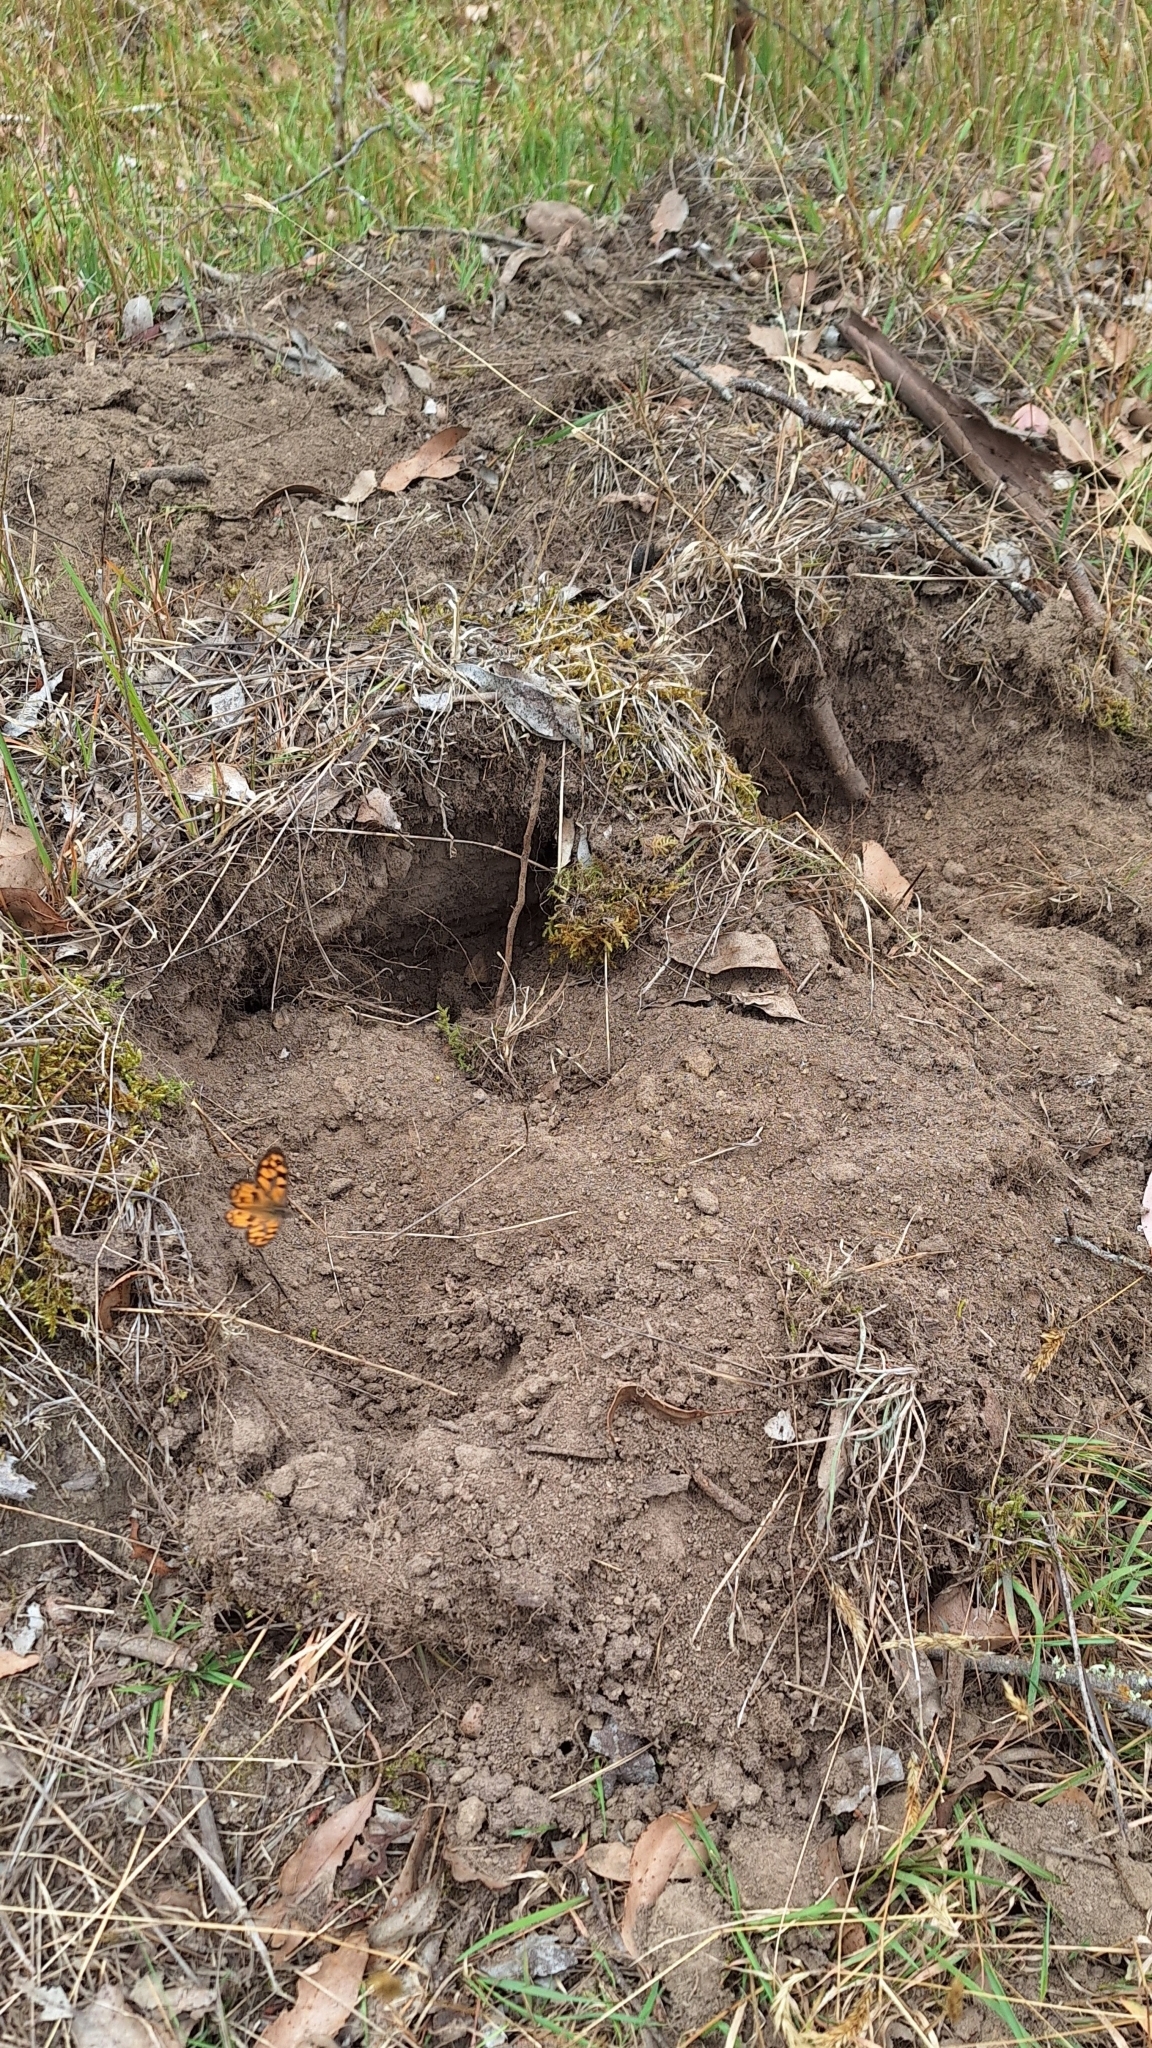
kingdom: Animalia
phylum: Chordata
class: Mammalia
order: Monotremata
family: Tachyglossidae
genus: Tachyglossus
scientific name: Tachyglossus aculeatus
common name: Short-beaked echidna
